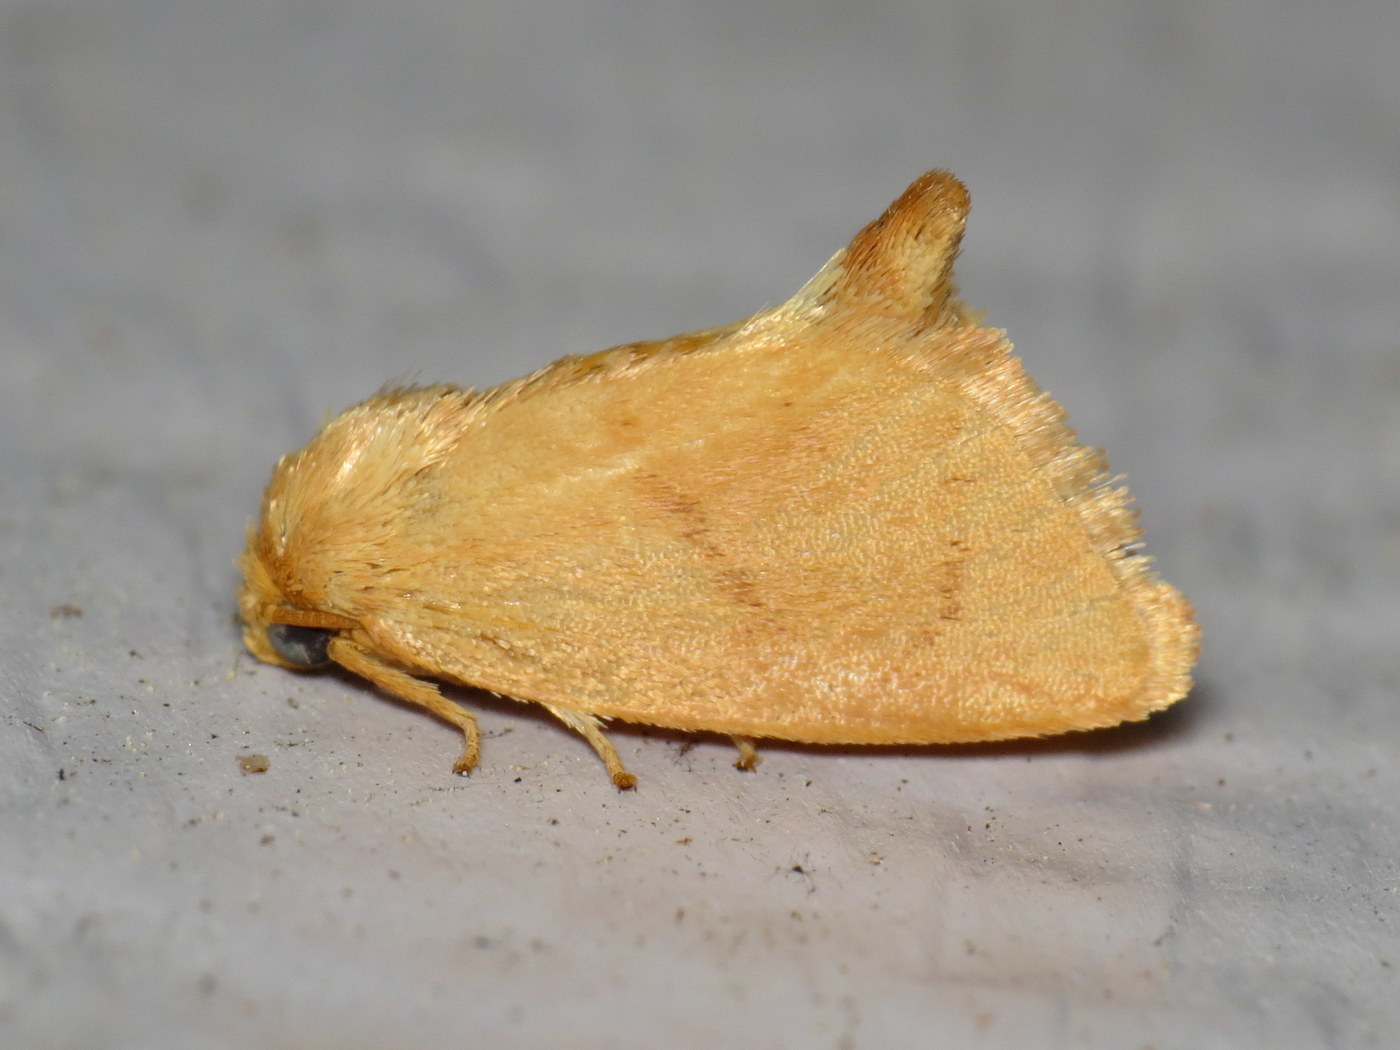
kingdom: Animalia
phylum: Arthropoda
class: Insecta
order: Lepidoptera
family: Limacodidae
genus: Tortricidia
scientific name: Tortricidia pallida
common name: Red-crossed button slug moth
